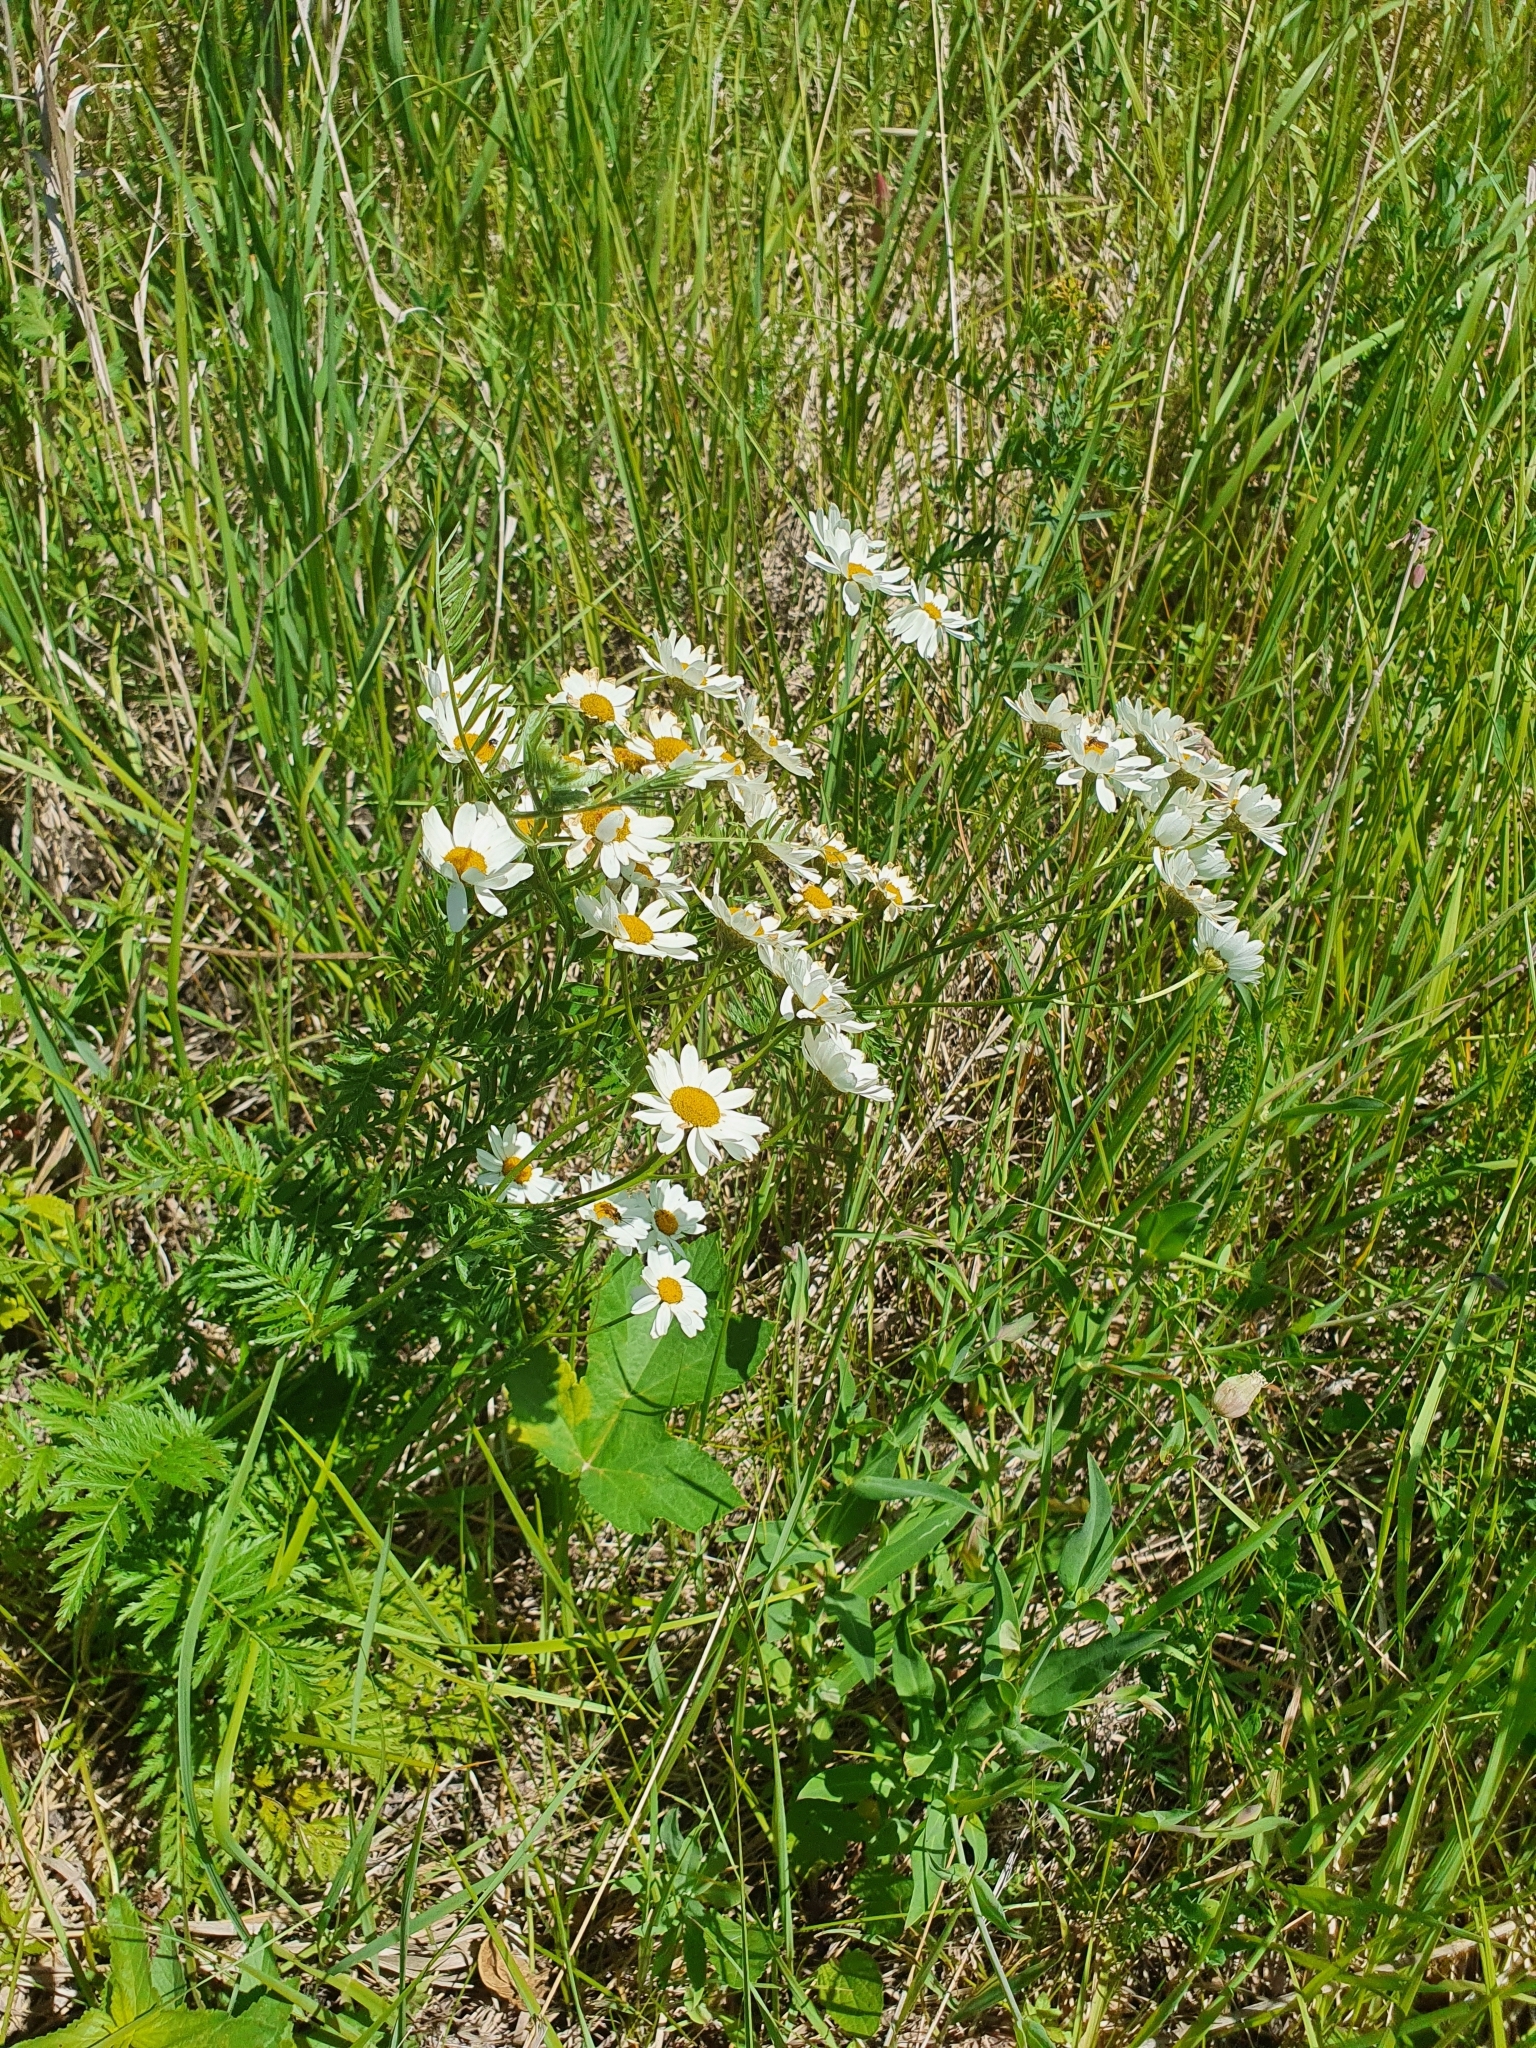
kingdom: Plantae
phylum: Tracheophyta
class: Magnoliopsida
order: Asterales
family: Asteraceae
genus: Tanacetum
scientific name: Tanacetum corymbosum
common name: Scentless feverfew
